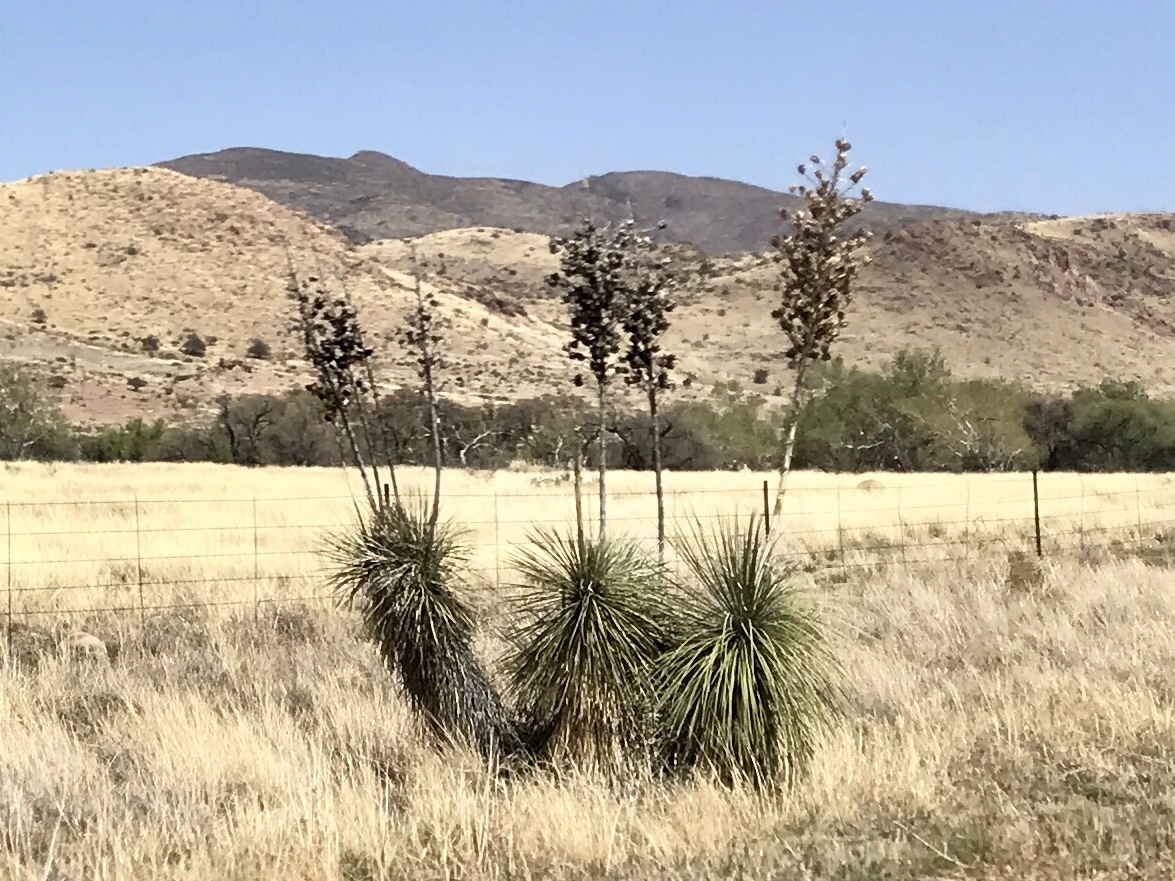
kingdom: Plantae
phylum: Tracheophyta
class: Liliopsida
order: Asparagales
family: Asparagaceae
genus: Yucca
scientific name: Yucca elata
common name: Palmella
